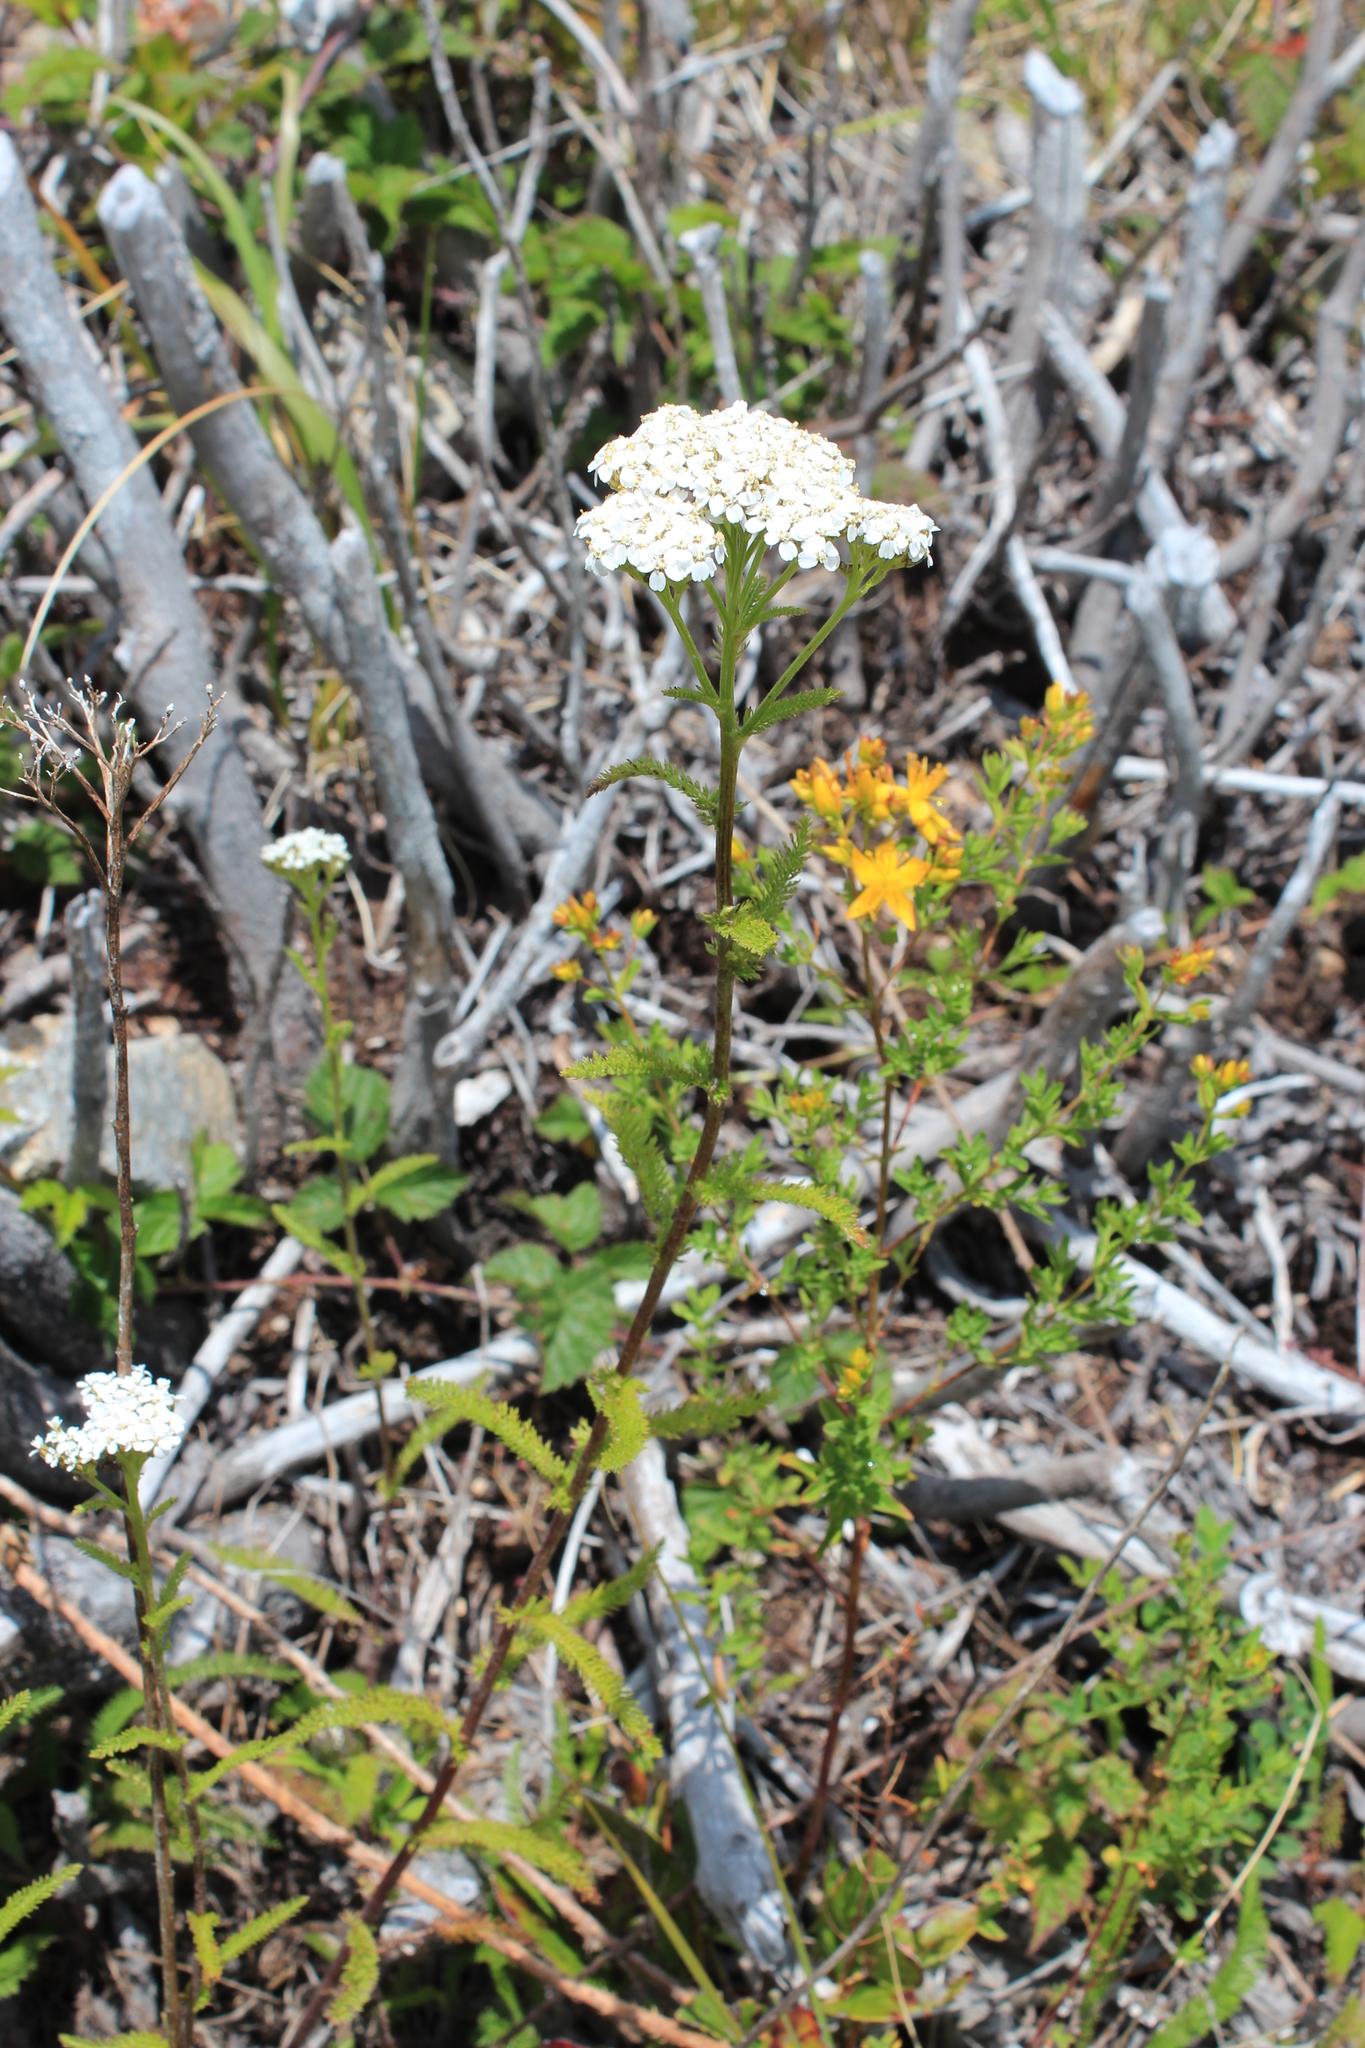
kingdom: Plantae
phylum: Tracheophyta
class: Magnoliopsida
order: Asterales
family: Asteraceae
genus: Achillea
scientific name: Achillea millefolium
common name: Yarrow
